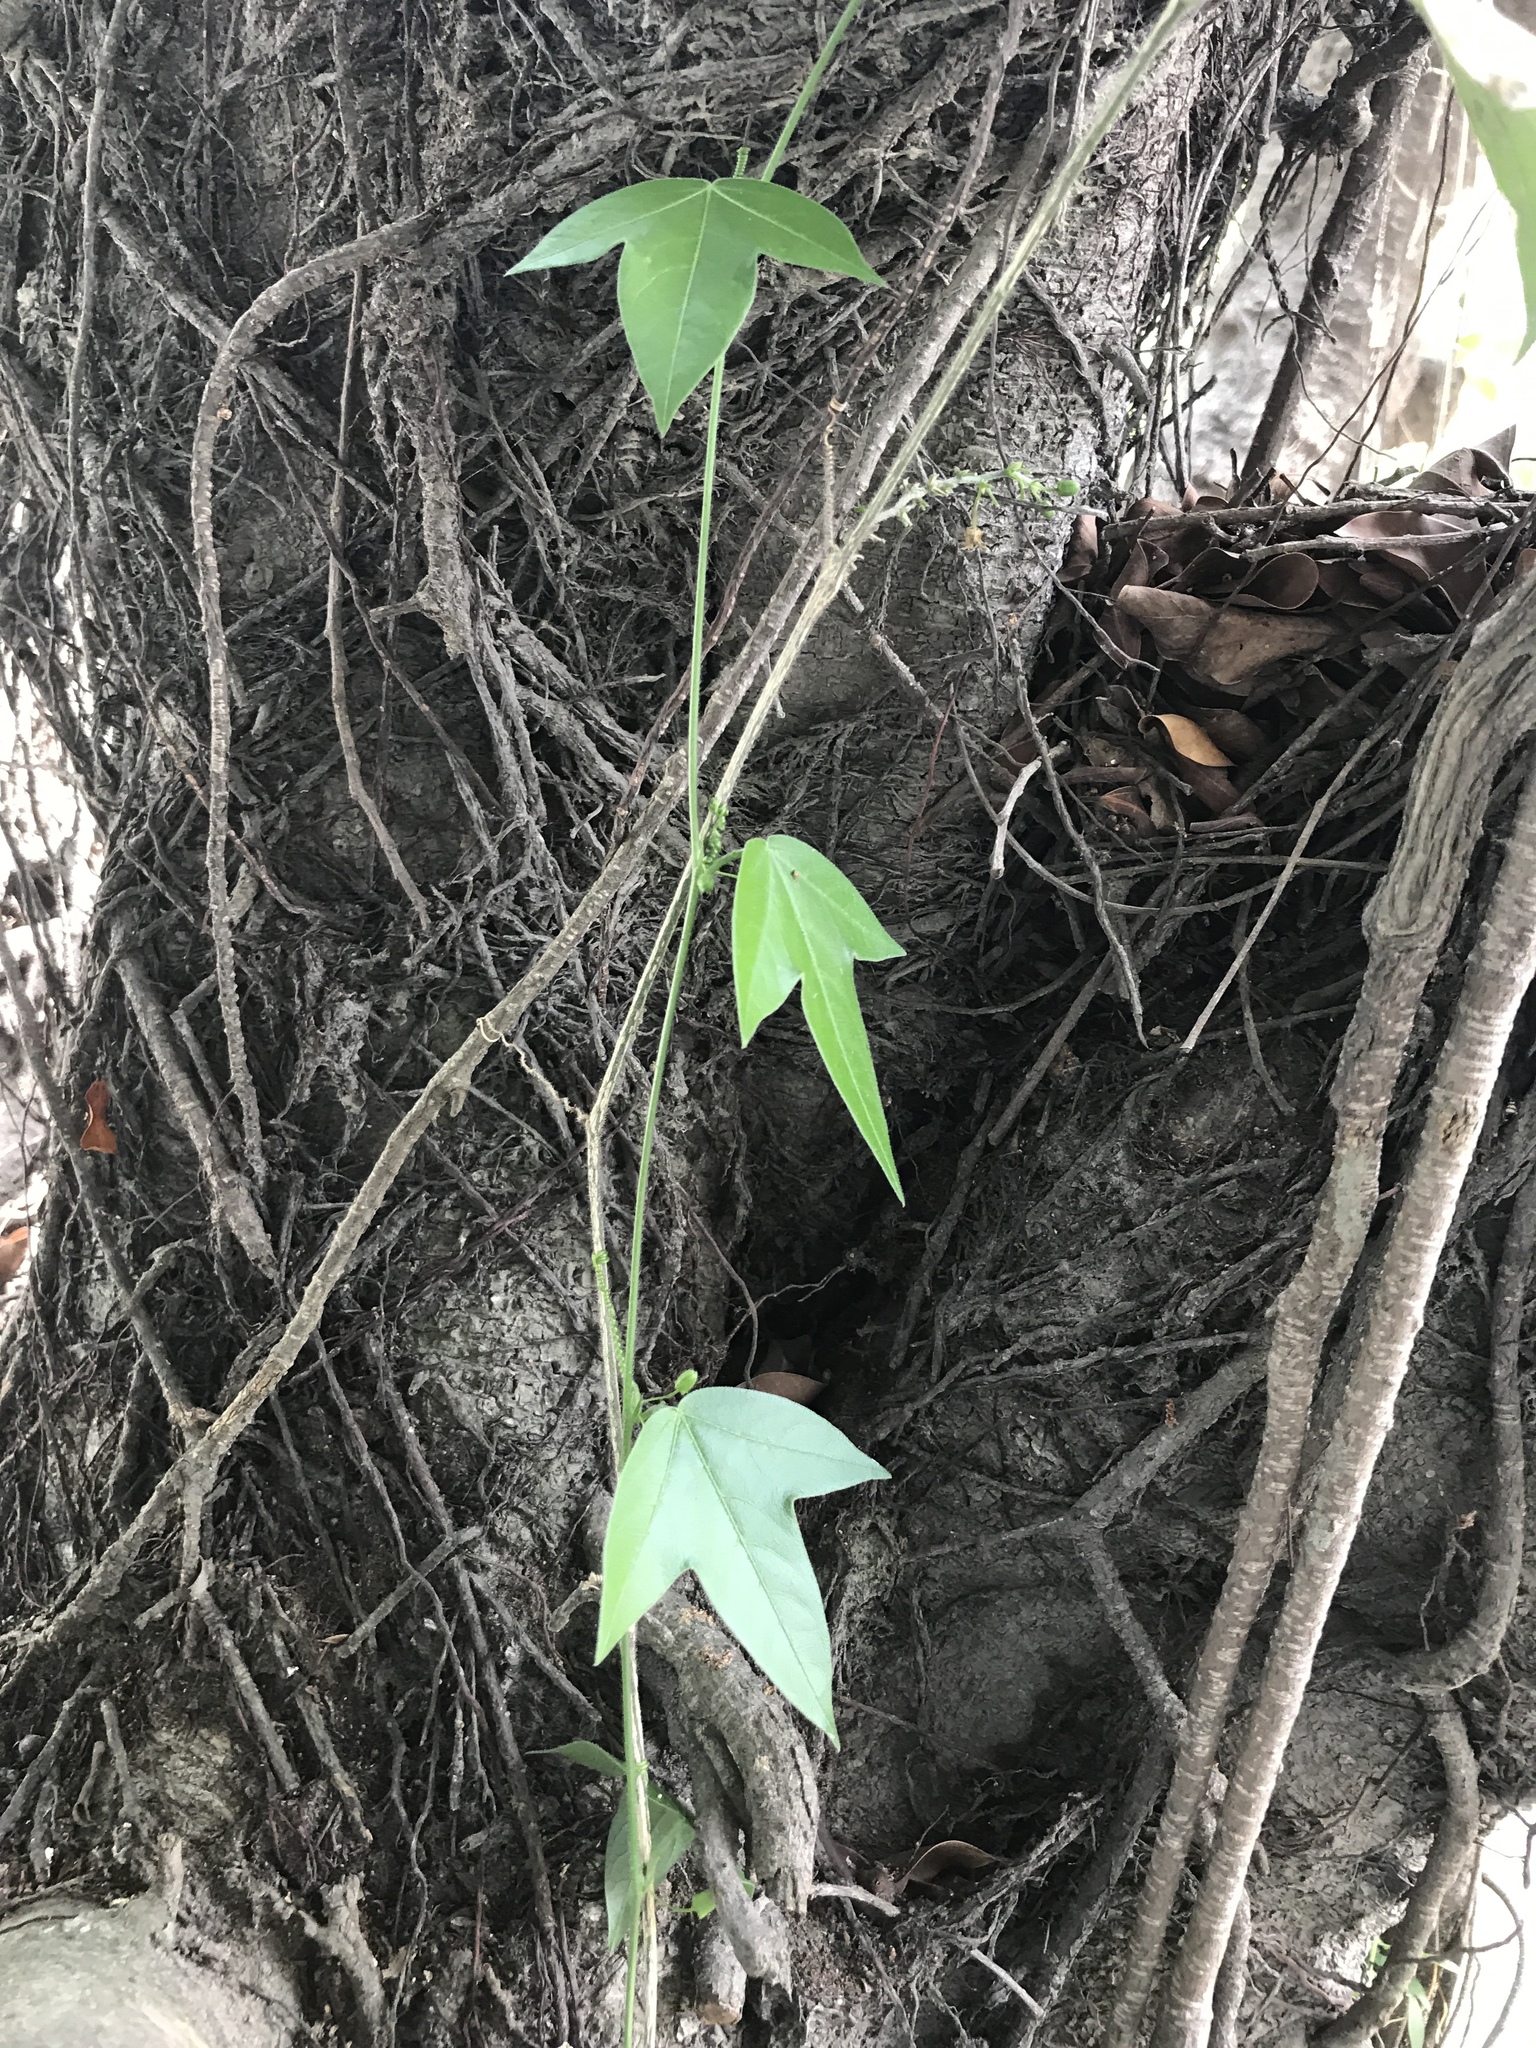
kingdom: Plantae
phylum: Tracheophyta
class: Magnoliopsida
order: Malpighiales
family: Passifloraceae
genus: Passiflora
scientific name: Passiflora suberosa
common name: Wild passionfruit
